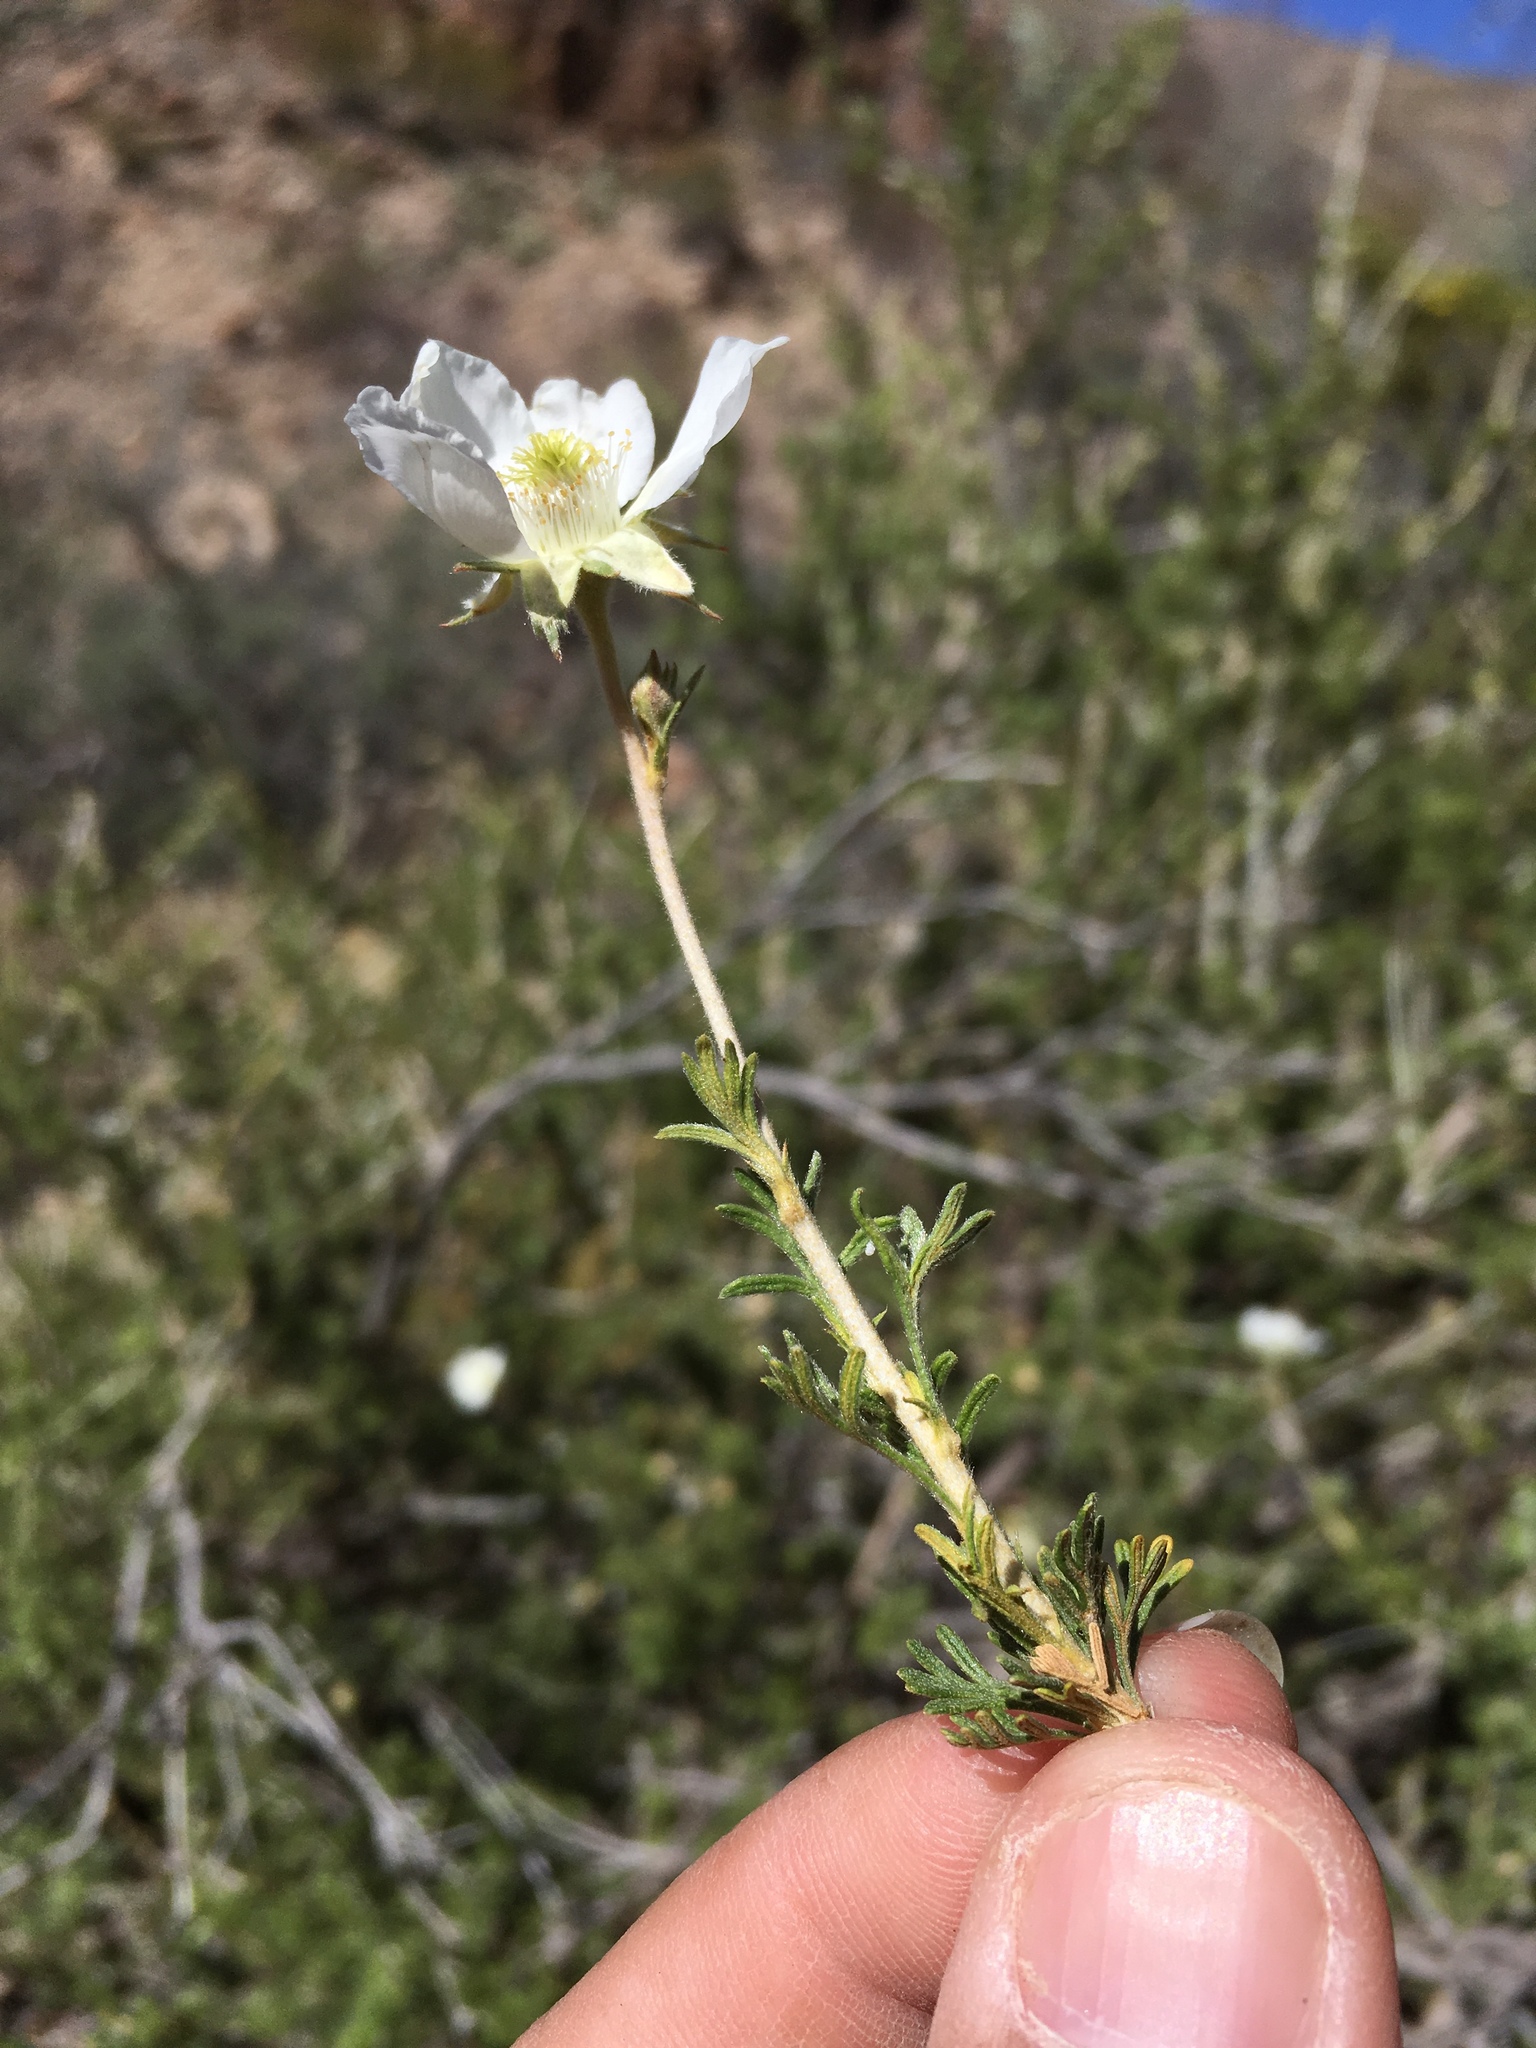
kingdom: Plantae
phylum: Tracheophyta
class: Magnoliopsida
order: Rosales
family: Rosaceae
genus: Fallugia
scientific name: Fallugia paradoxa
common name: Apache-plume
